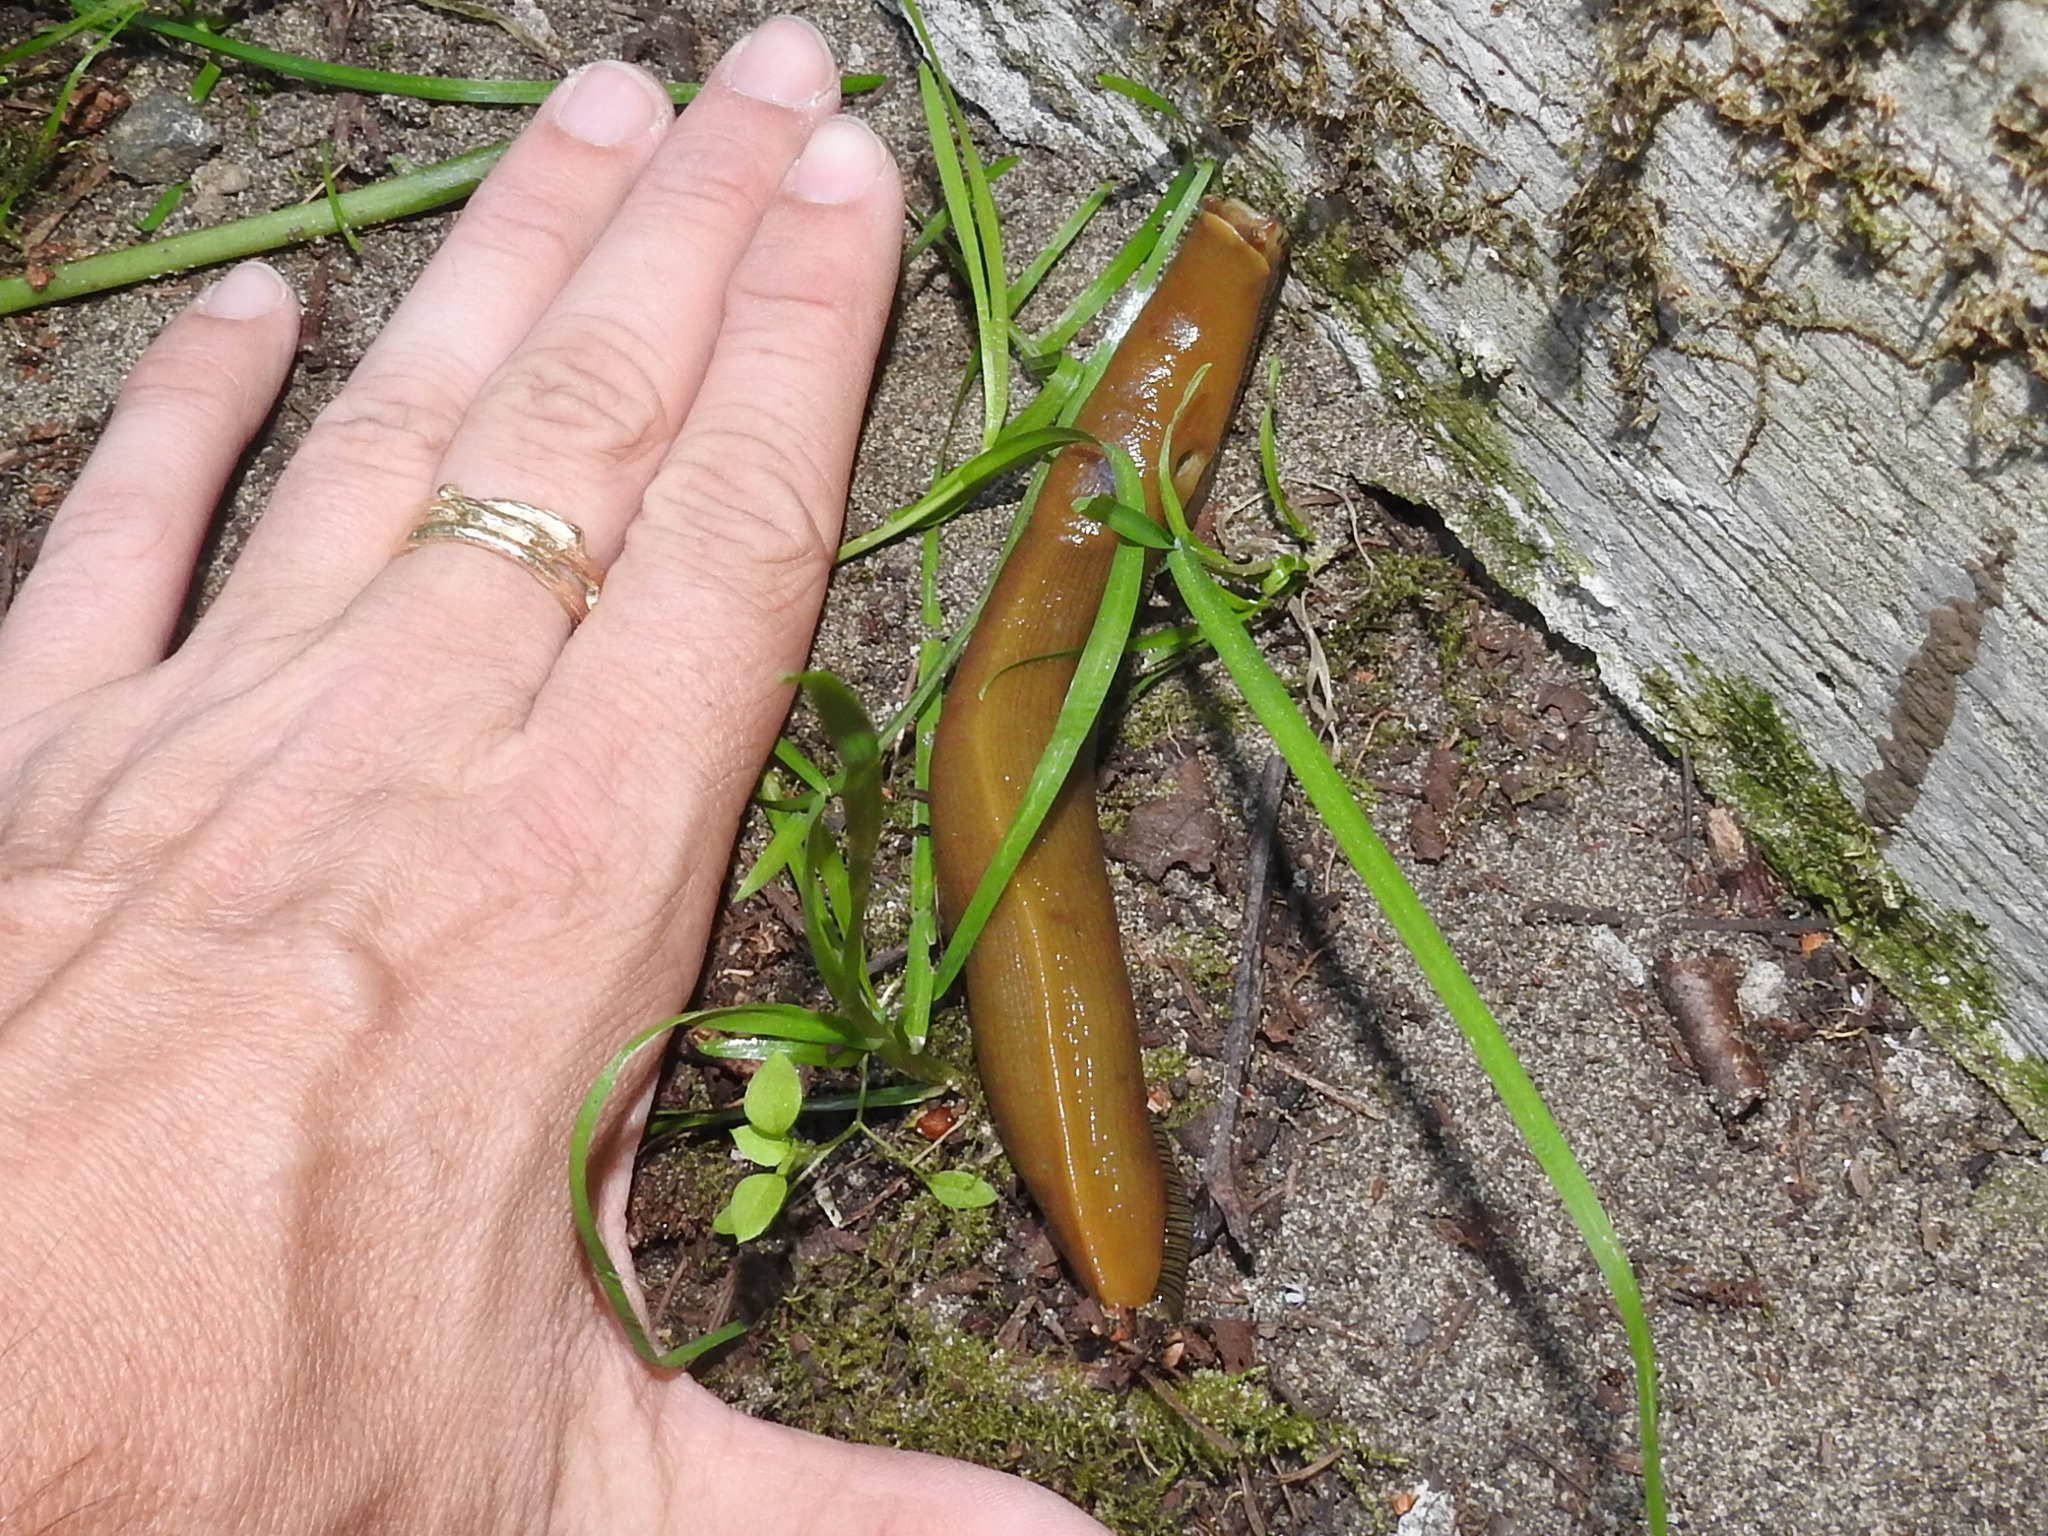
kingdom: Animalia
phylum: Mollusca
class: Gastropoda
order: Stylommatophora
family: Ariolimacidae
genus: Ariolimax
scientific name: Ariolimax buttoni
